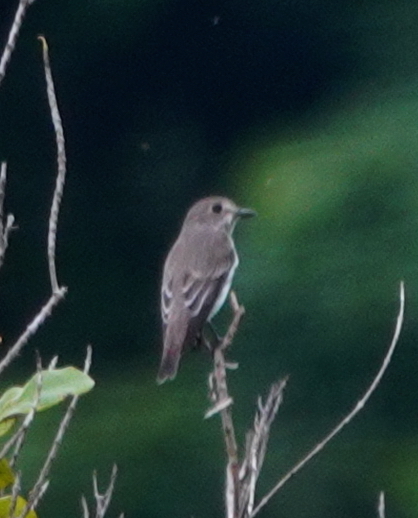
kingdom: Animalia
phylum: Chordata
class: Aves
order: Passeriformes
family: Muscicapidae
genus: Muscicapa
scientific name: Muscicapa griseisticta
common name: Gray-streaked flycatcher
